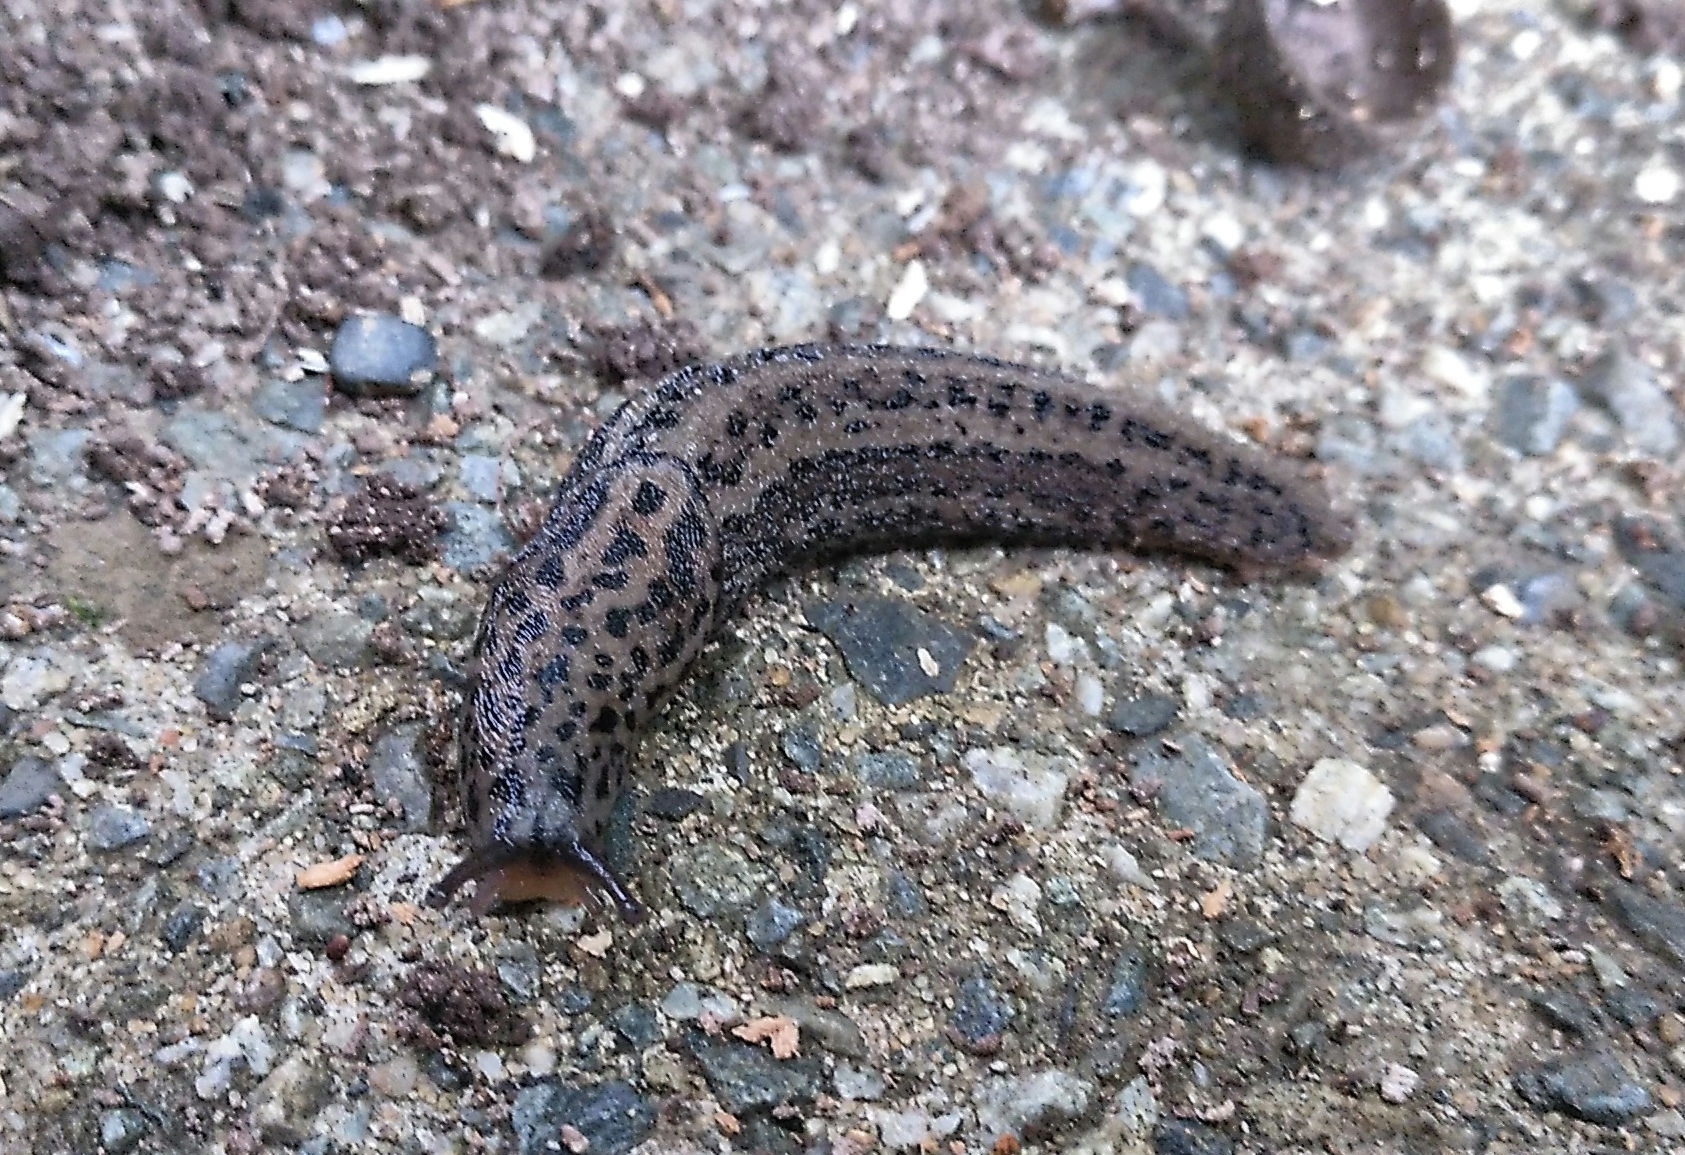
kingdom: Animalia
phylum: Mollusca
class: Gastropoda
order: Stylommatophora
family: Limacidae
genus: Limax
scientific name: Limax maximus
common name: Great grey slug
